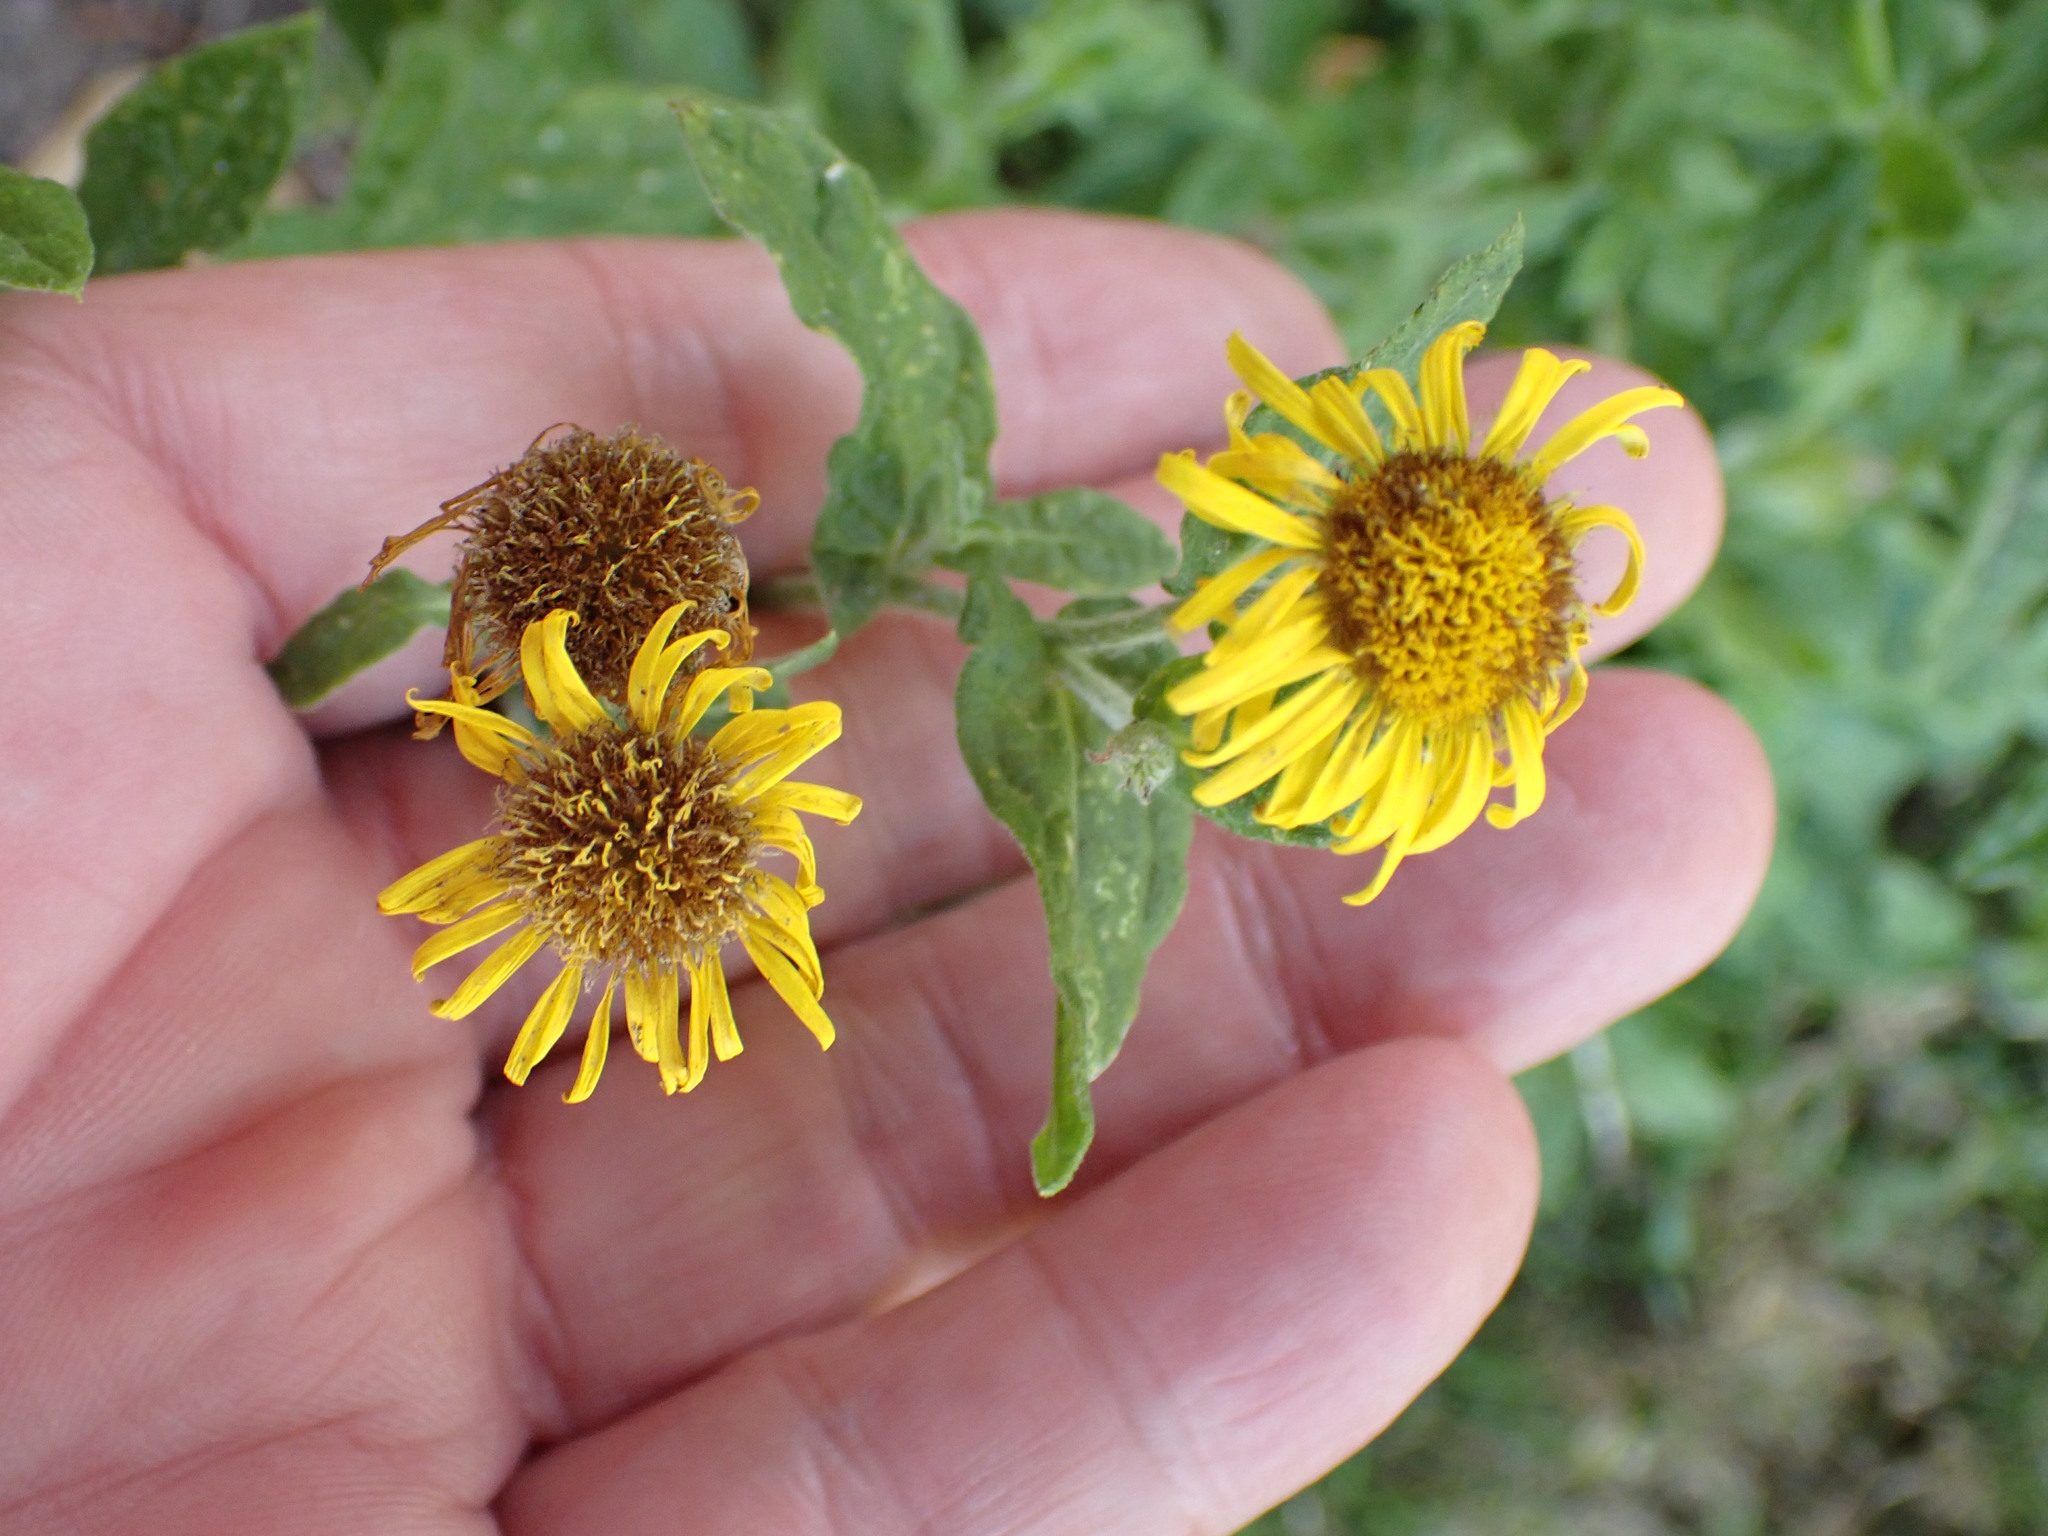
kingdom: Plantae
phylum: Tracheophyta
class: Magnoliopsida
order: Asterales
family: Asteraceae
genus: Pulicaria
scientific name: Pulicaria dysenterica
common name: Common fleabane
